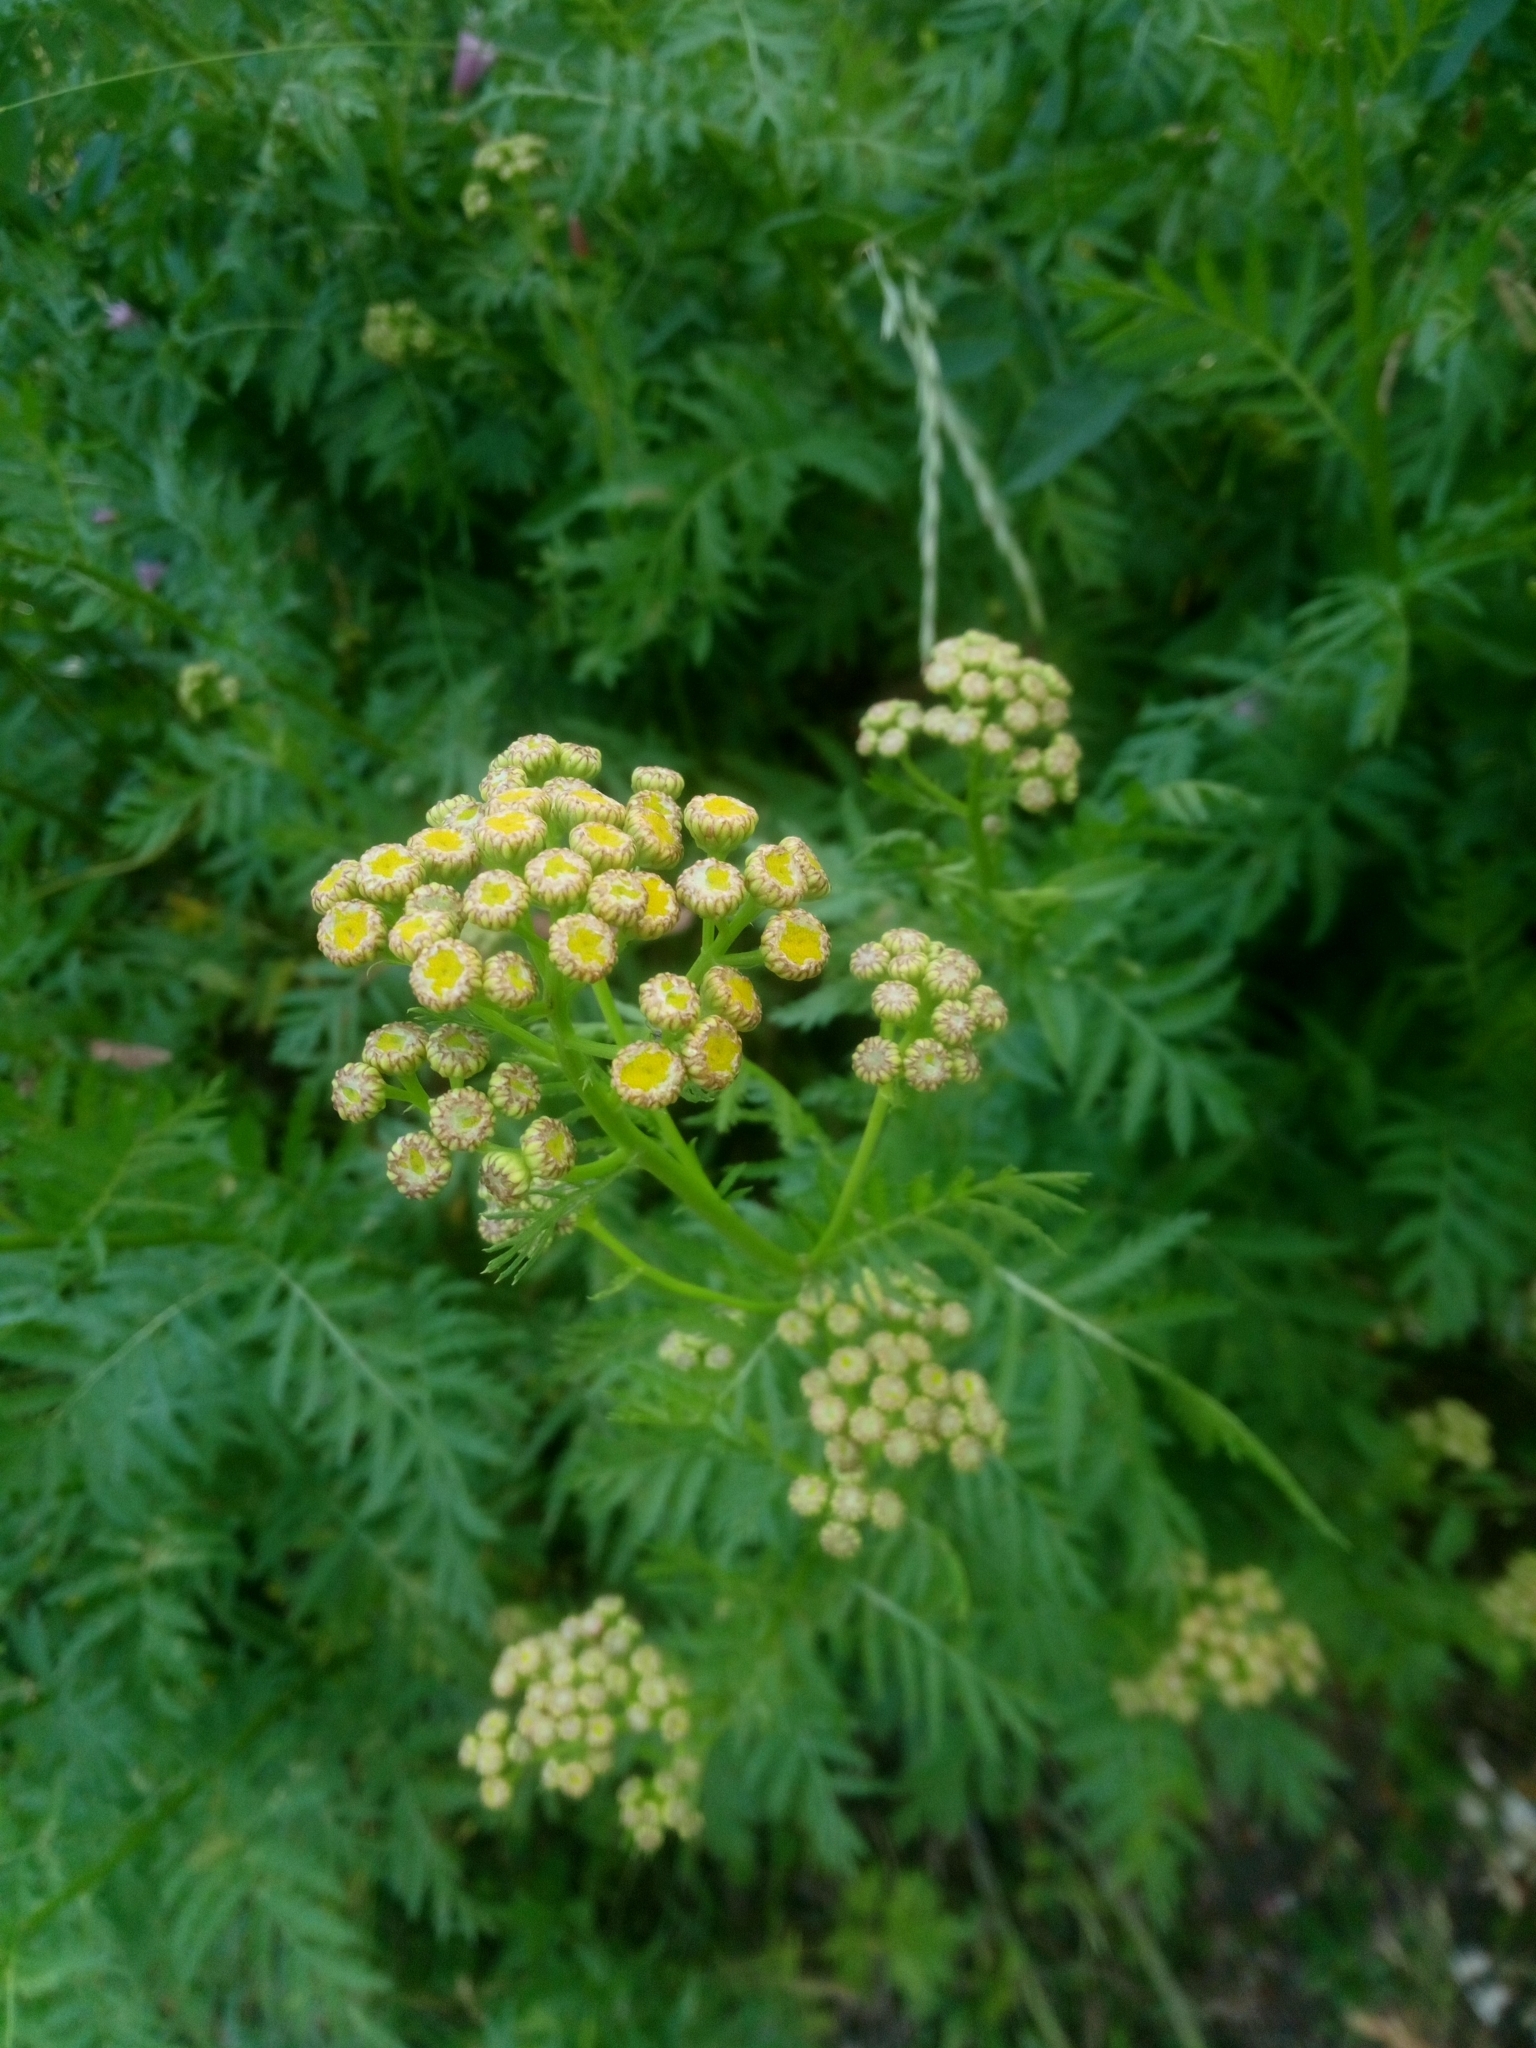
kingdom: Plantae
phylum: Tracheophyta
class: Magnoliopsida
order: Asterales
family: Asteraceae
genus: Tanacetum
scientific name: Tanacetum vulgare
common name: Common tansy
